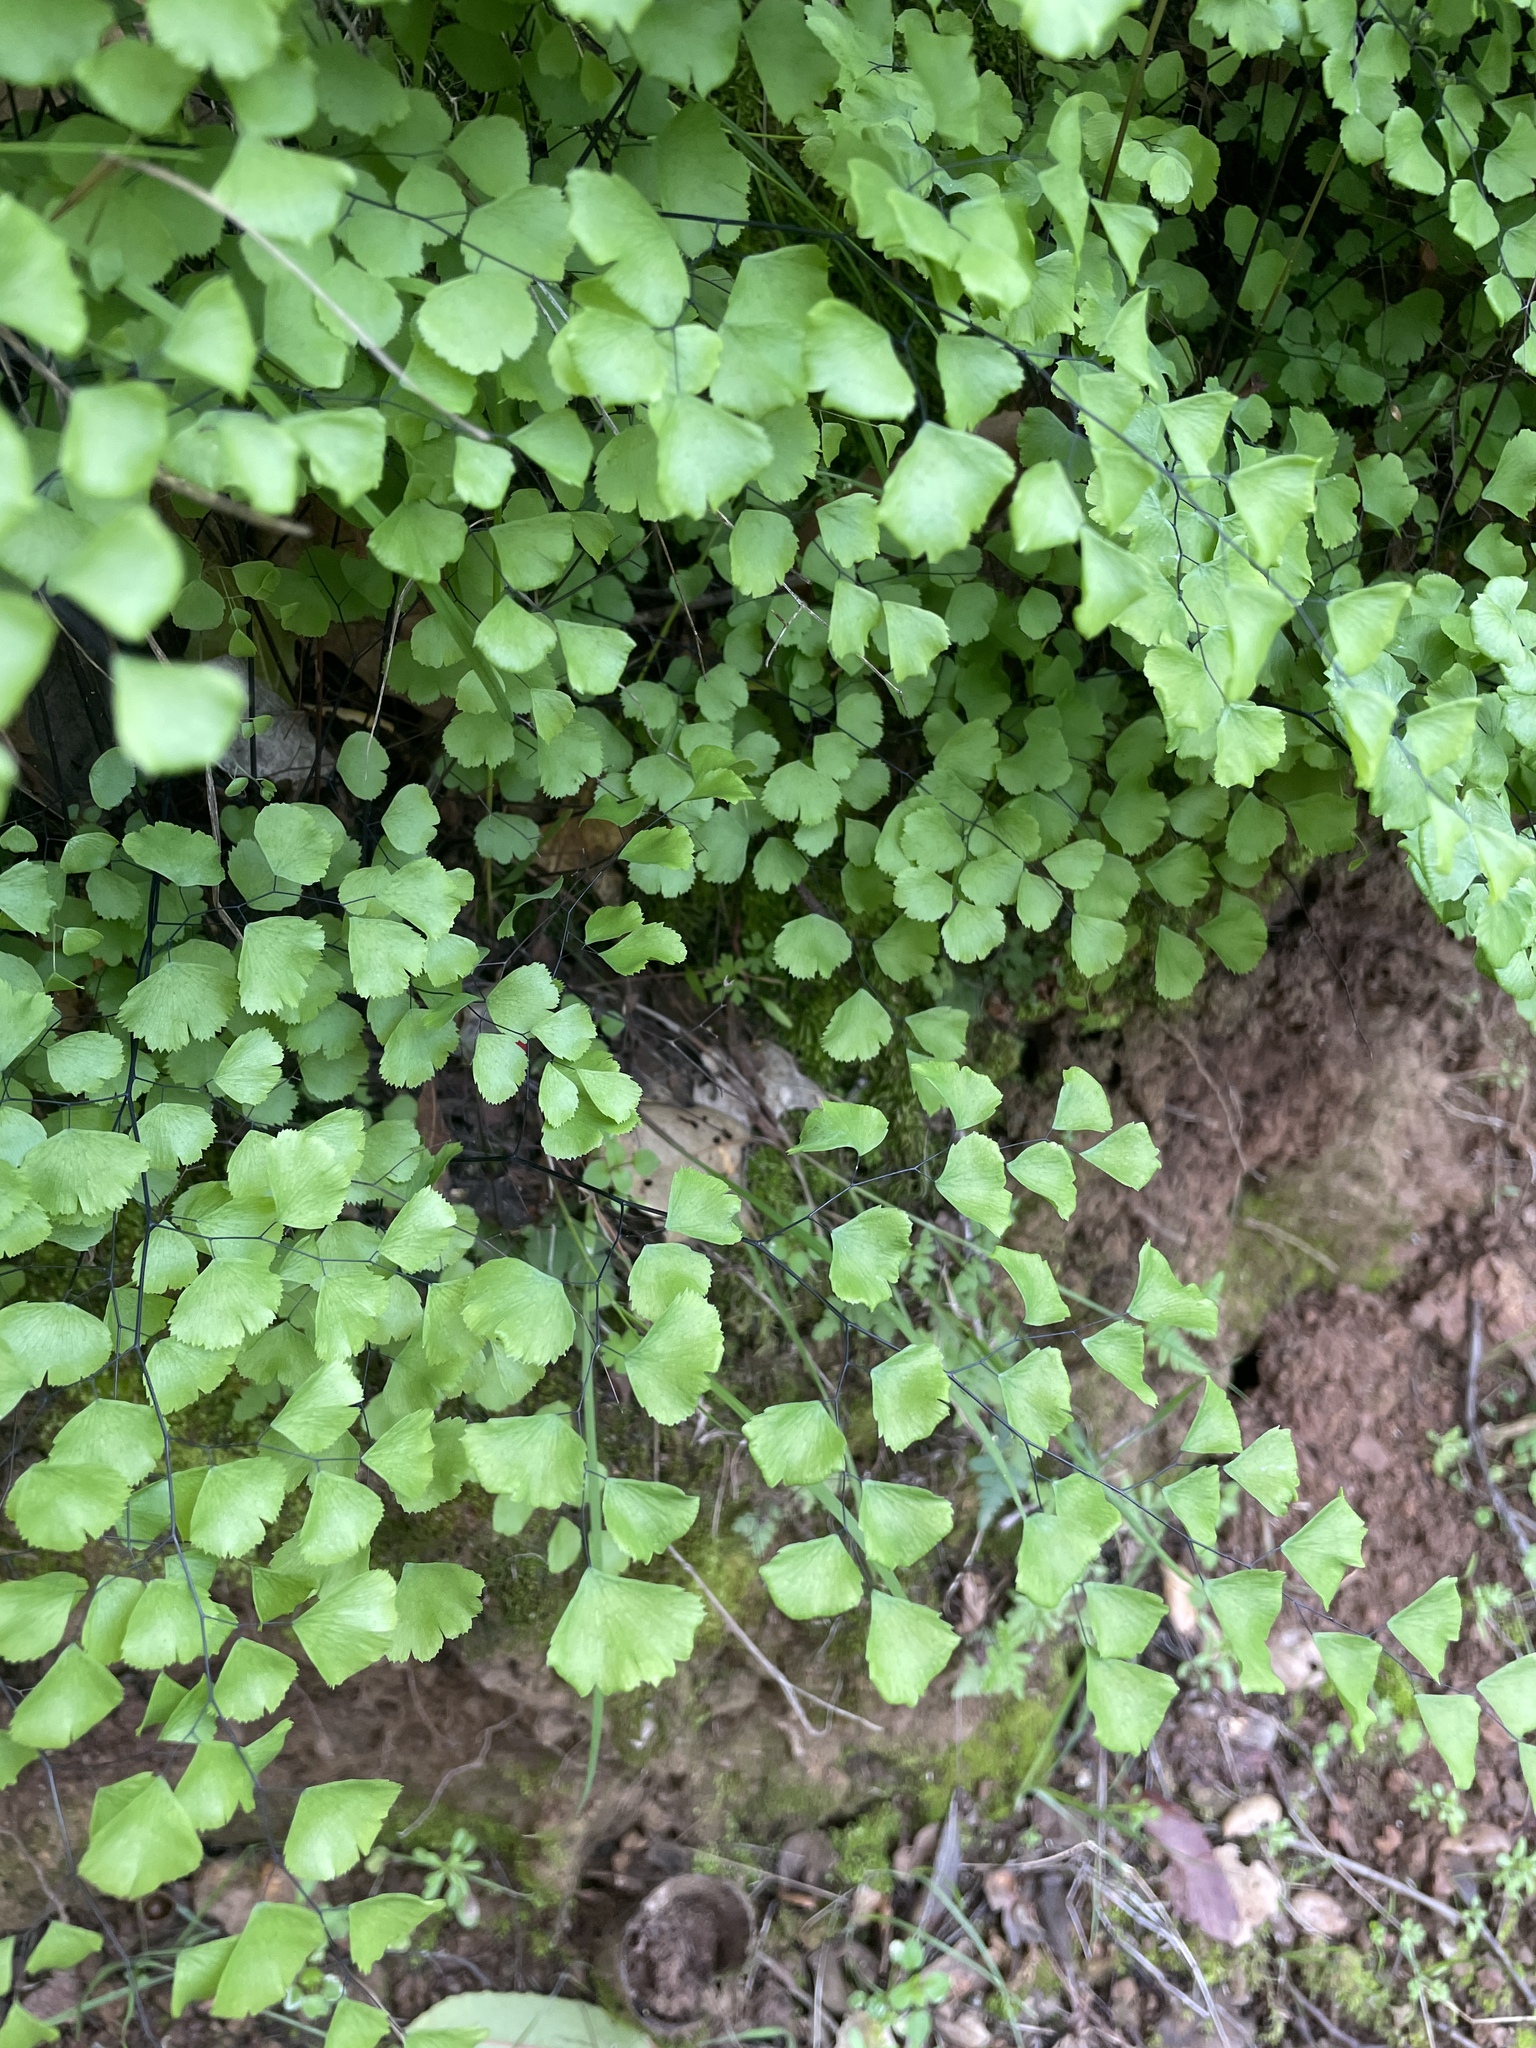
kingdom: Plantae
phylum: Tracheophyta
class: Polypodiopsida
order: Polypodiales
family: Pteridaceae
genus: Adiantum
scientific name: Adiantum jordanii
